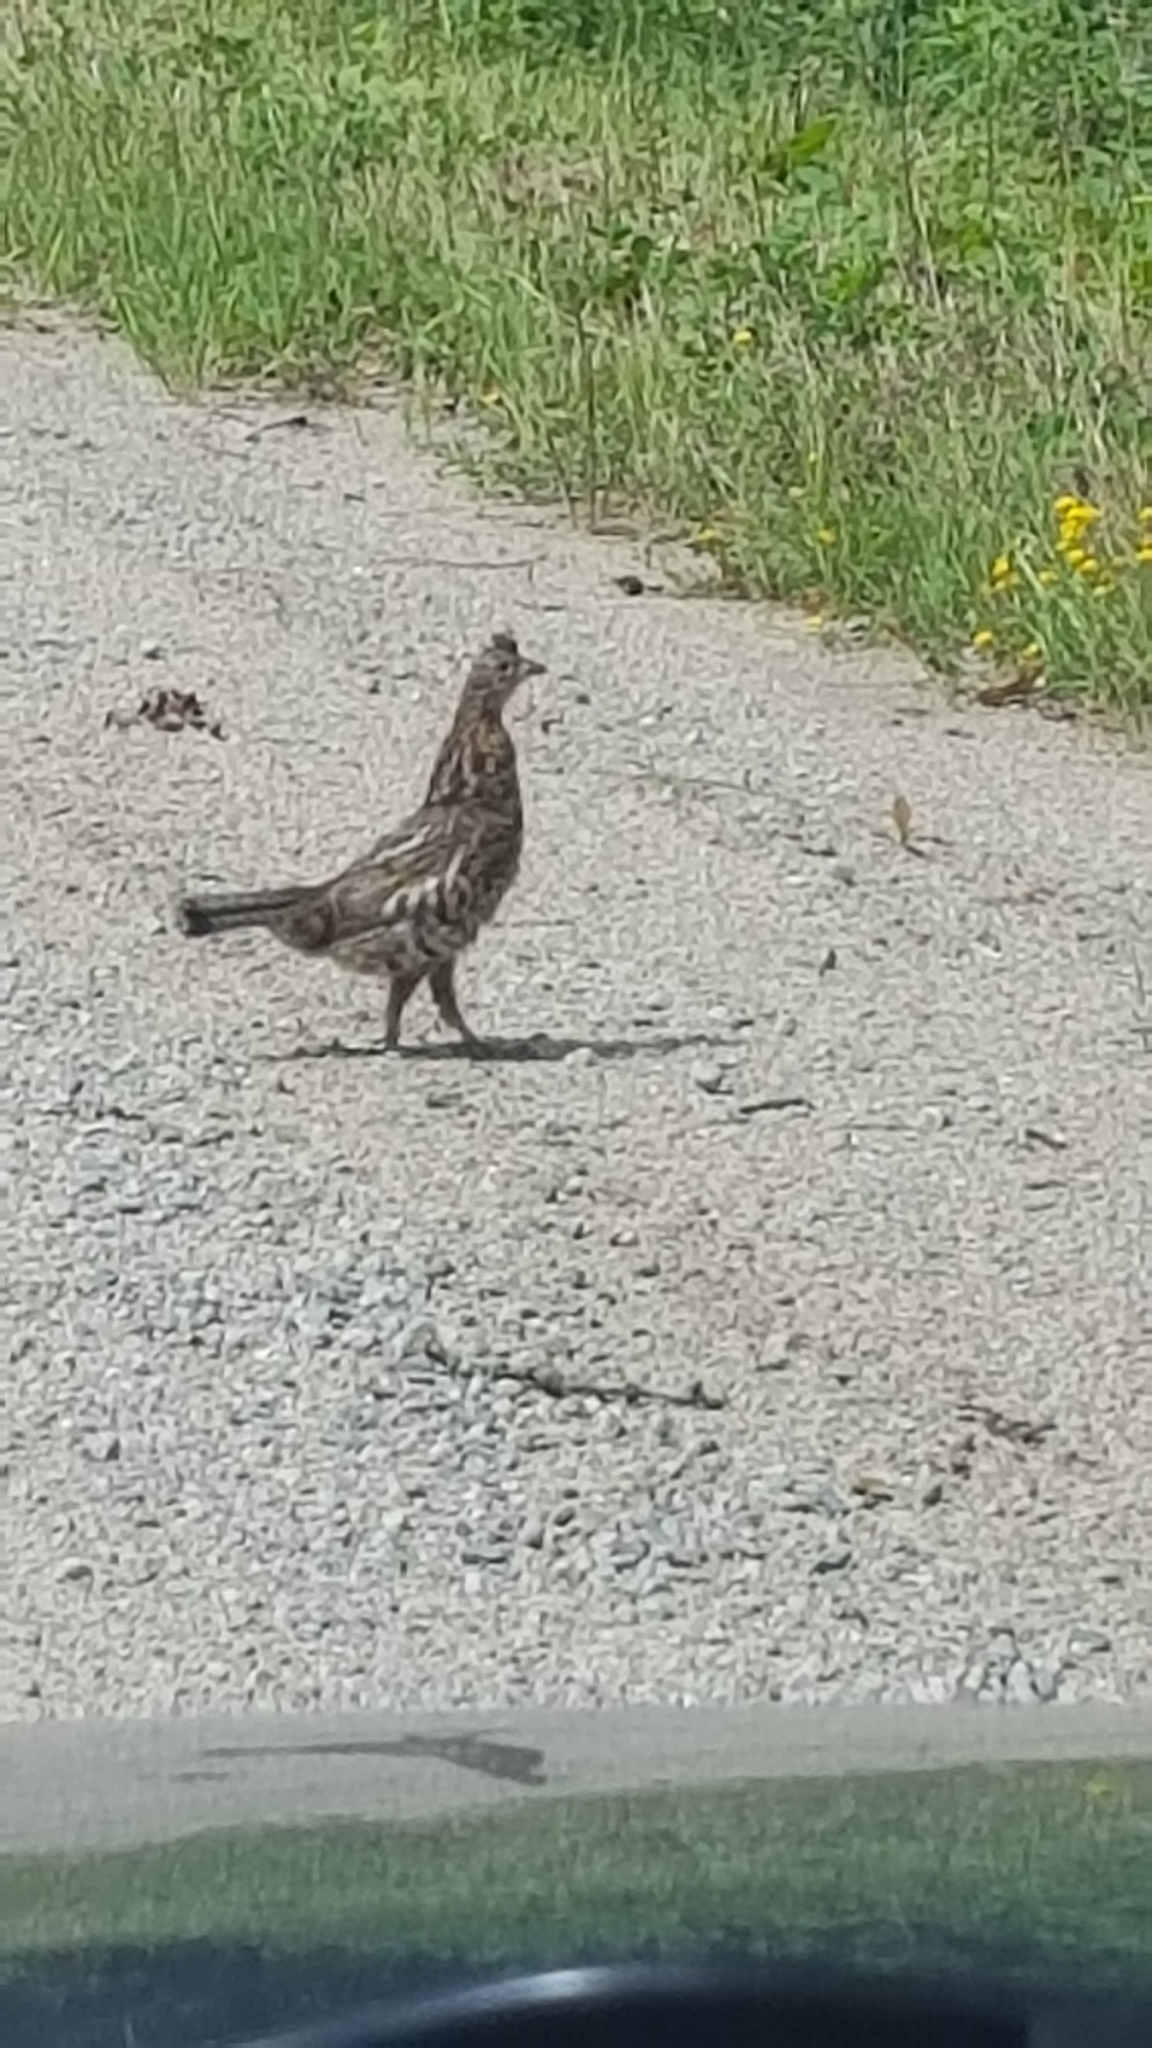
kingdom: Animalia
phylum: Chordata
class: Aves
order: Galliformes
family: Phasianidae
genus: Bonasa
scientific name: Bonasa umbellus
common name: Ruffed grouse
